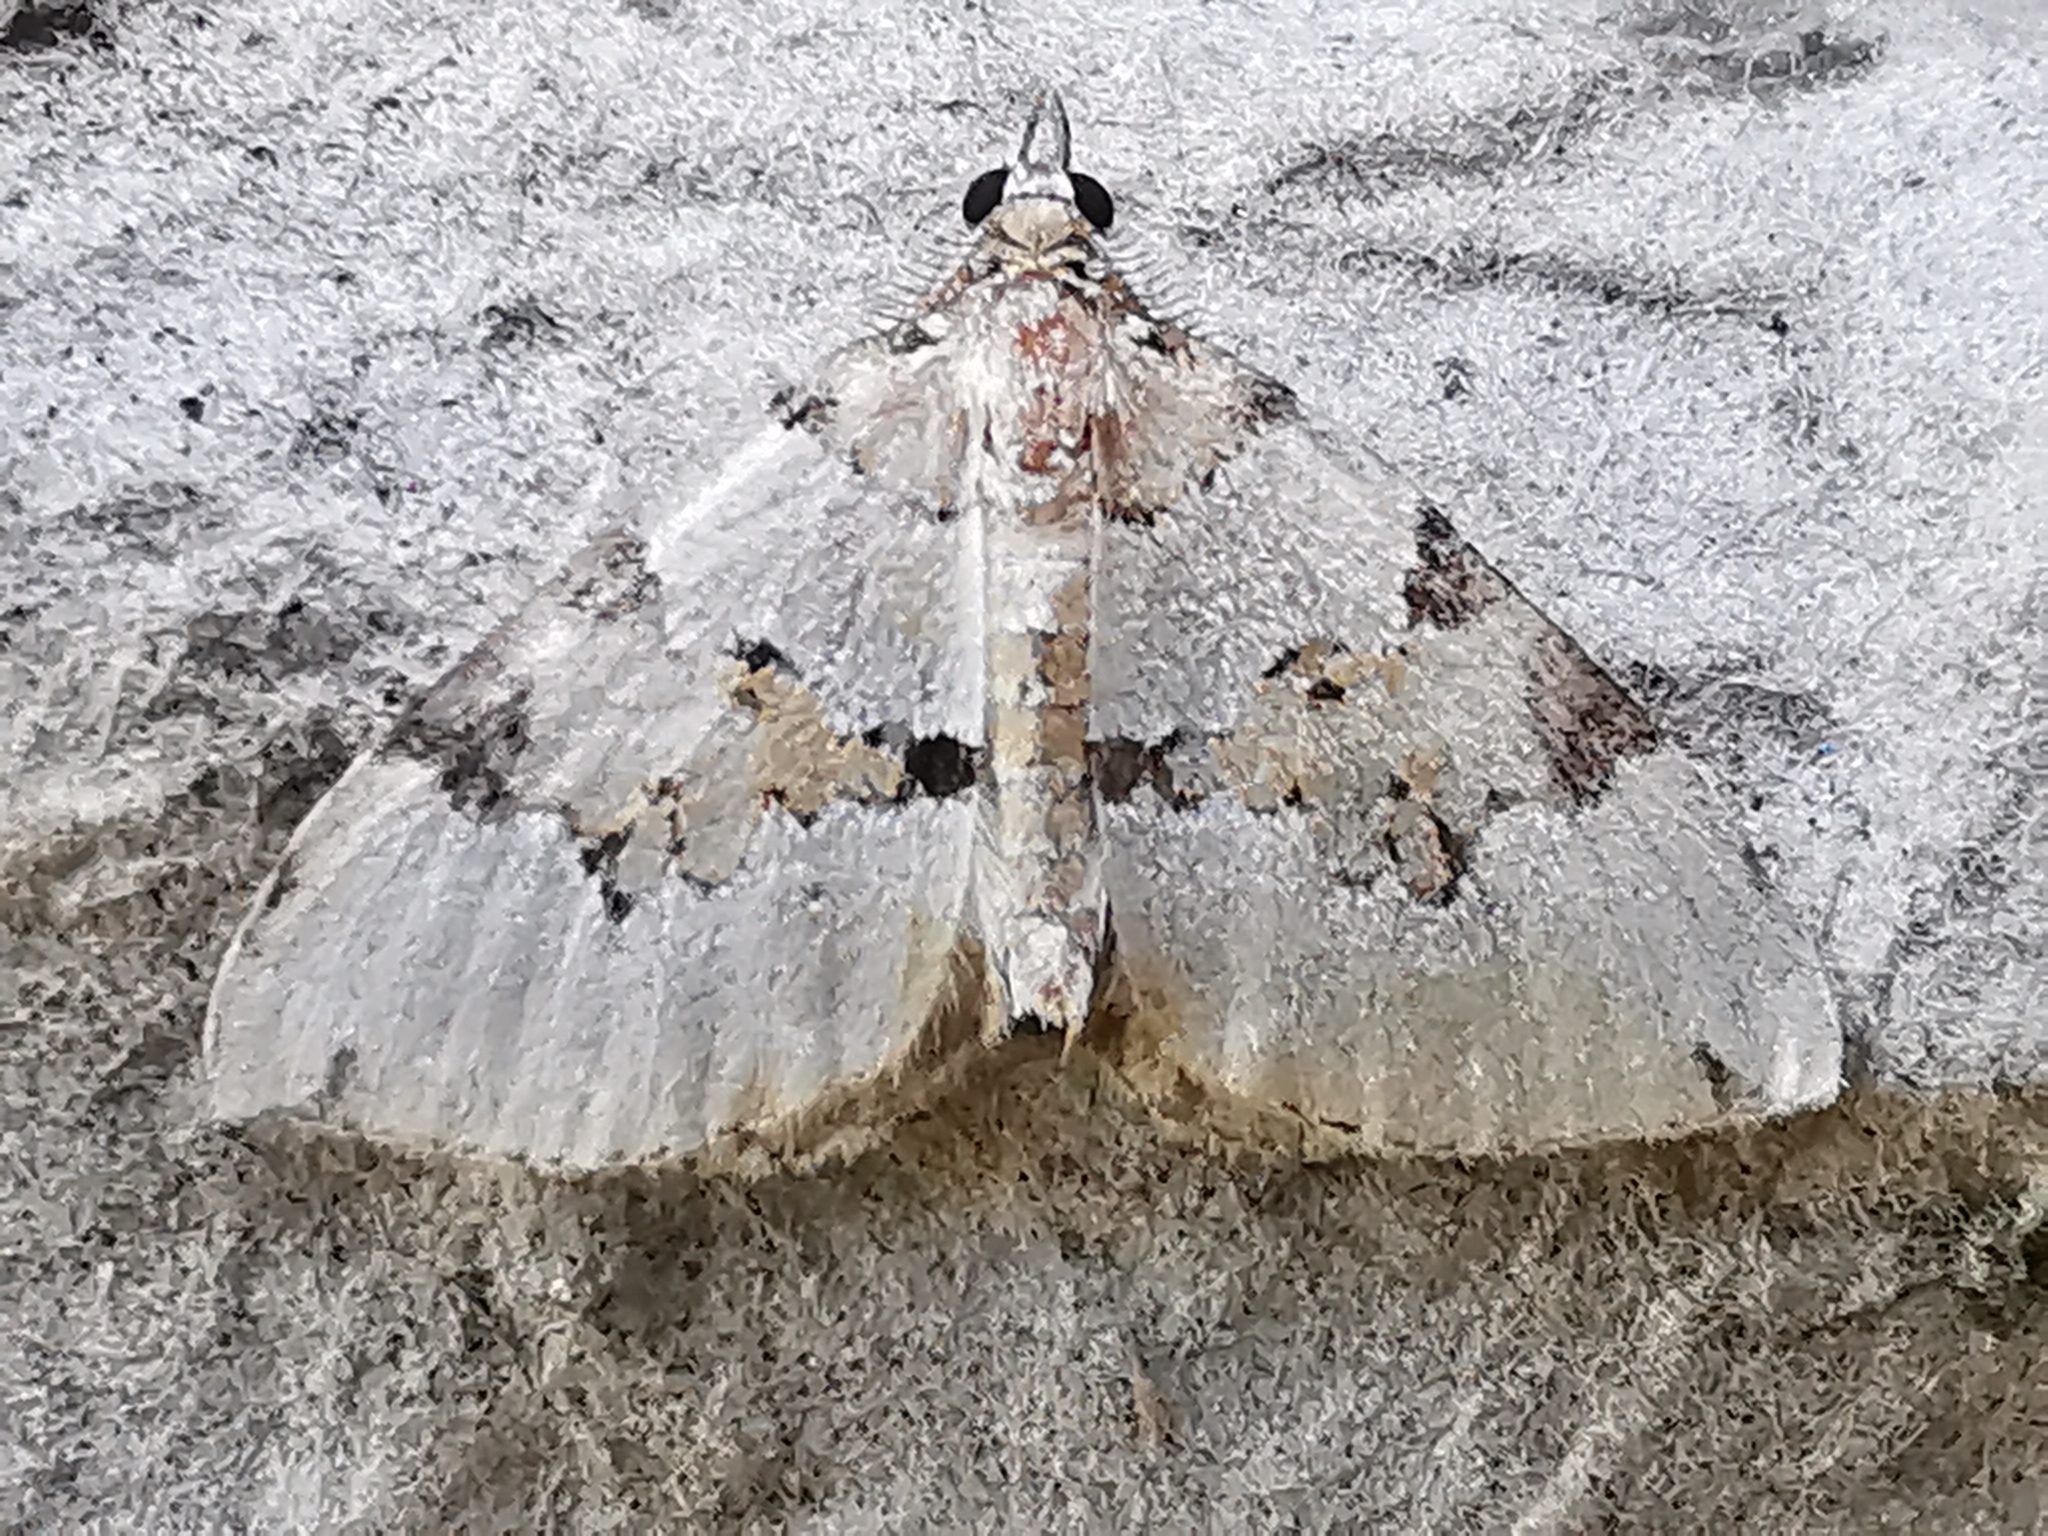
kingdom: Animalia
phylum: Arthropoda
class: Insecta
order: Lepidoptera
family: Geometridae
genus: Colostygia
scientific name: Colostygia pectinataria
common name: Green carpet
